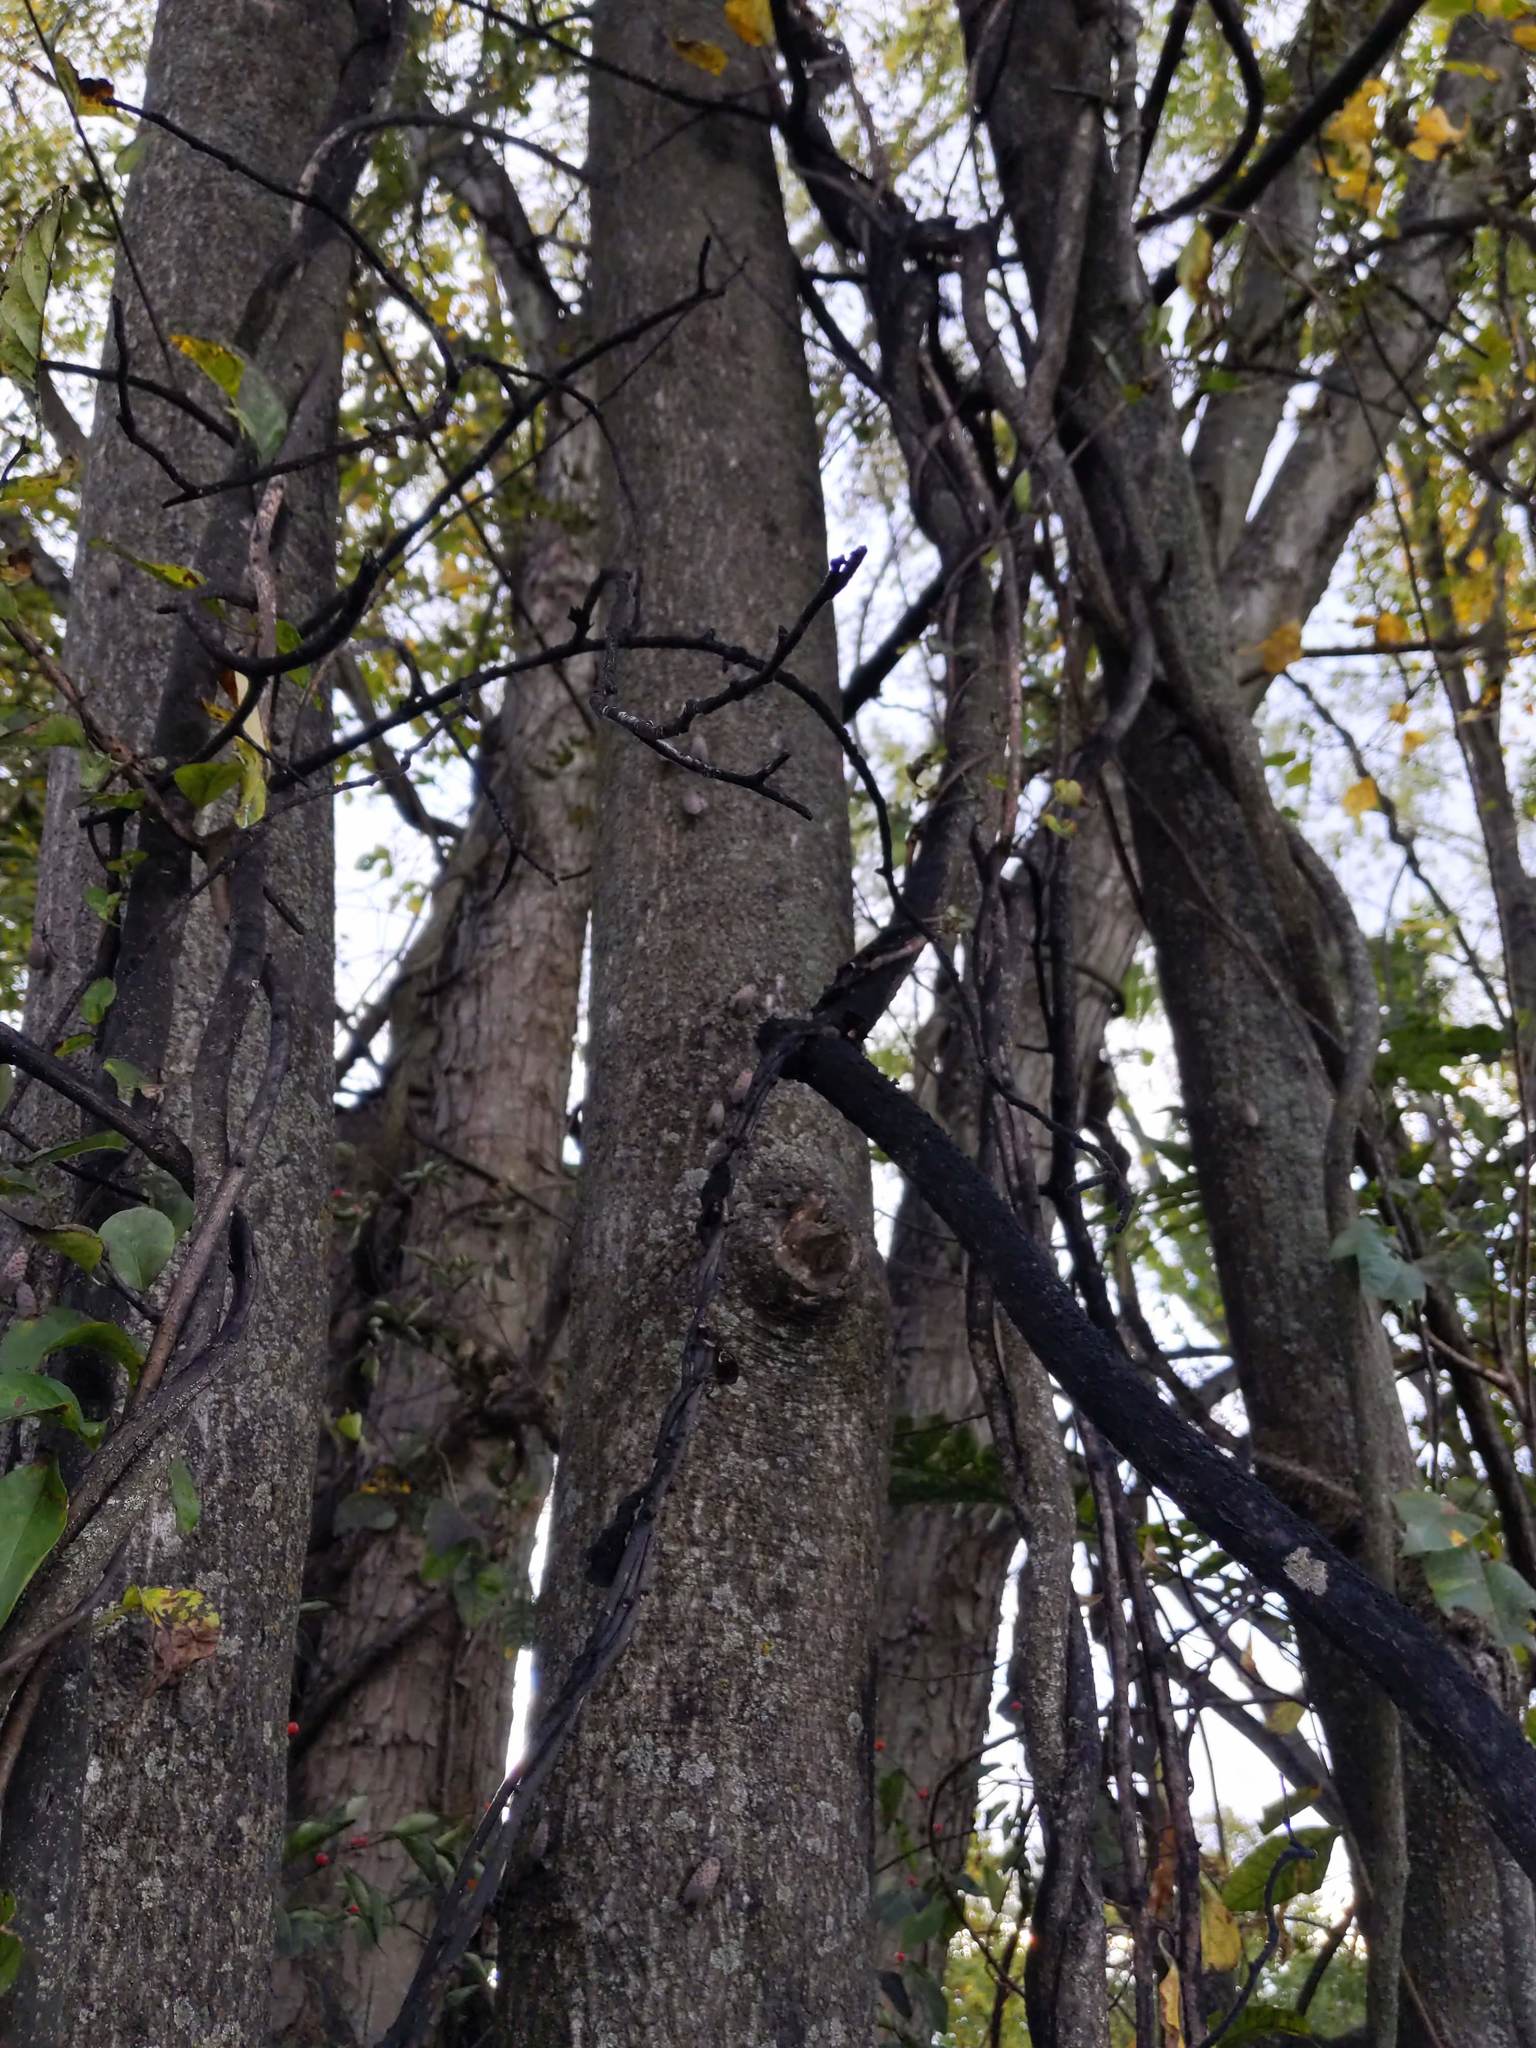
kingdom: Animalia
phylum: Arthropoda
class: Insecta
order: Hemiptera
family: Fulgoridae
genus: Lycorma
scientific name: Lycorma delicatula
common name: Spotted lanternfly
